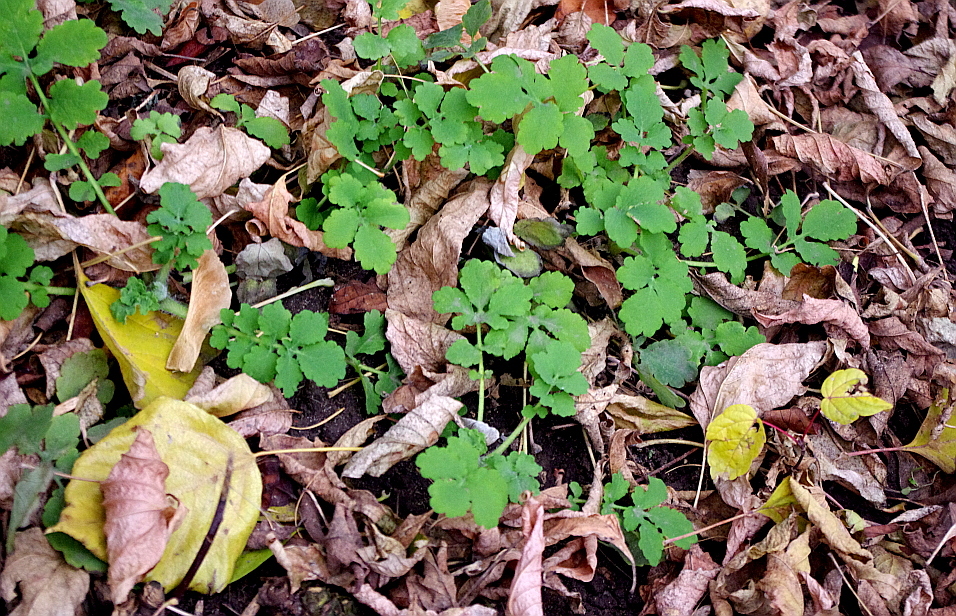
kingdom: Plantae
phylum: Tracheophyta
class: Magnoliopsida
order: Ranunculales
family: Papaveraceae
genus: Chelidonium
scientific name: Chelidonium majus
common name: Greater celandine
